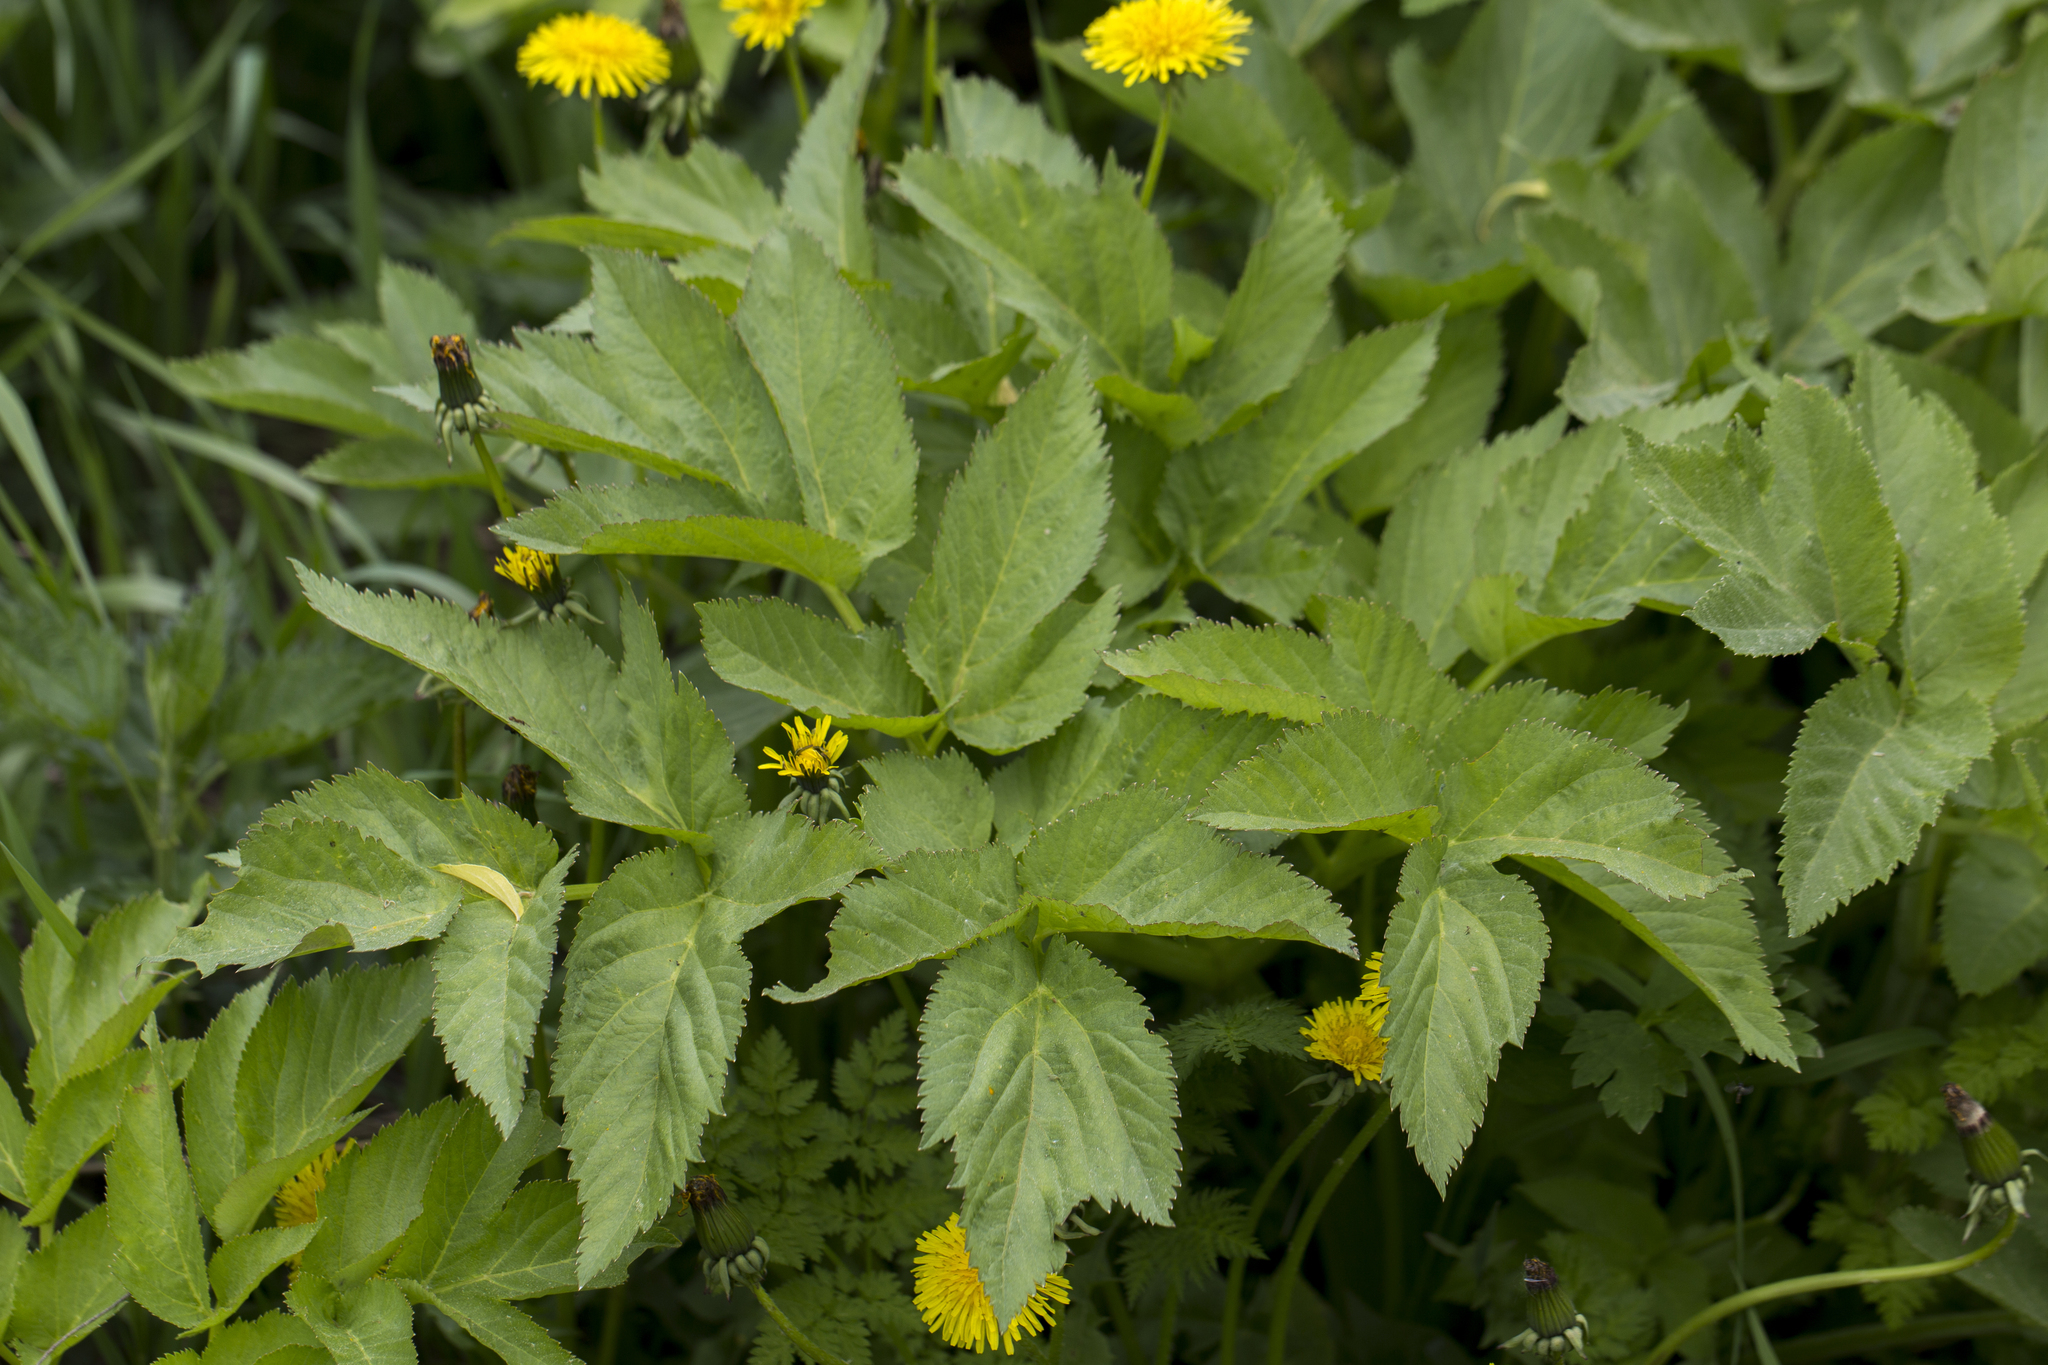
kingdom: Plantae
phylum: Tracheophyta
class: Magnoliopsida
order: Apiales
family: Apiaceae
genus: Angelica
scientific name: Angelica archangelica
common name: Garden angelica
